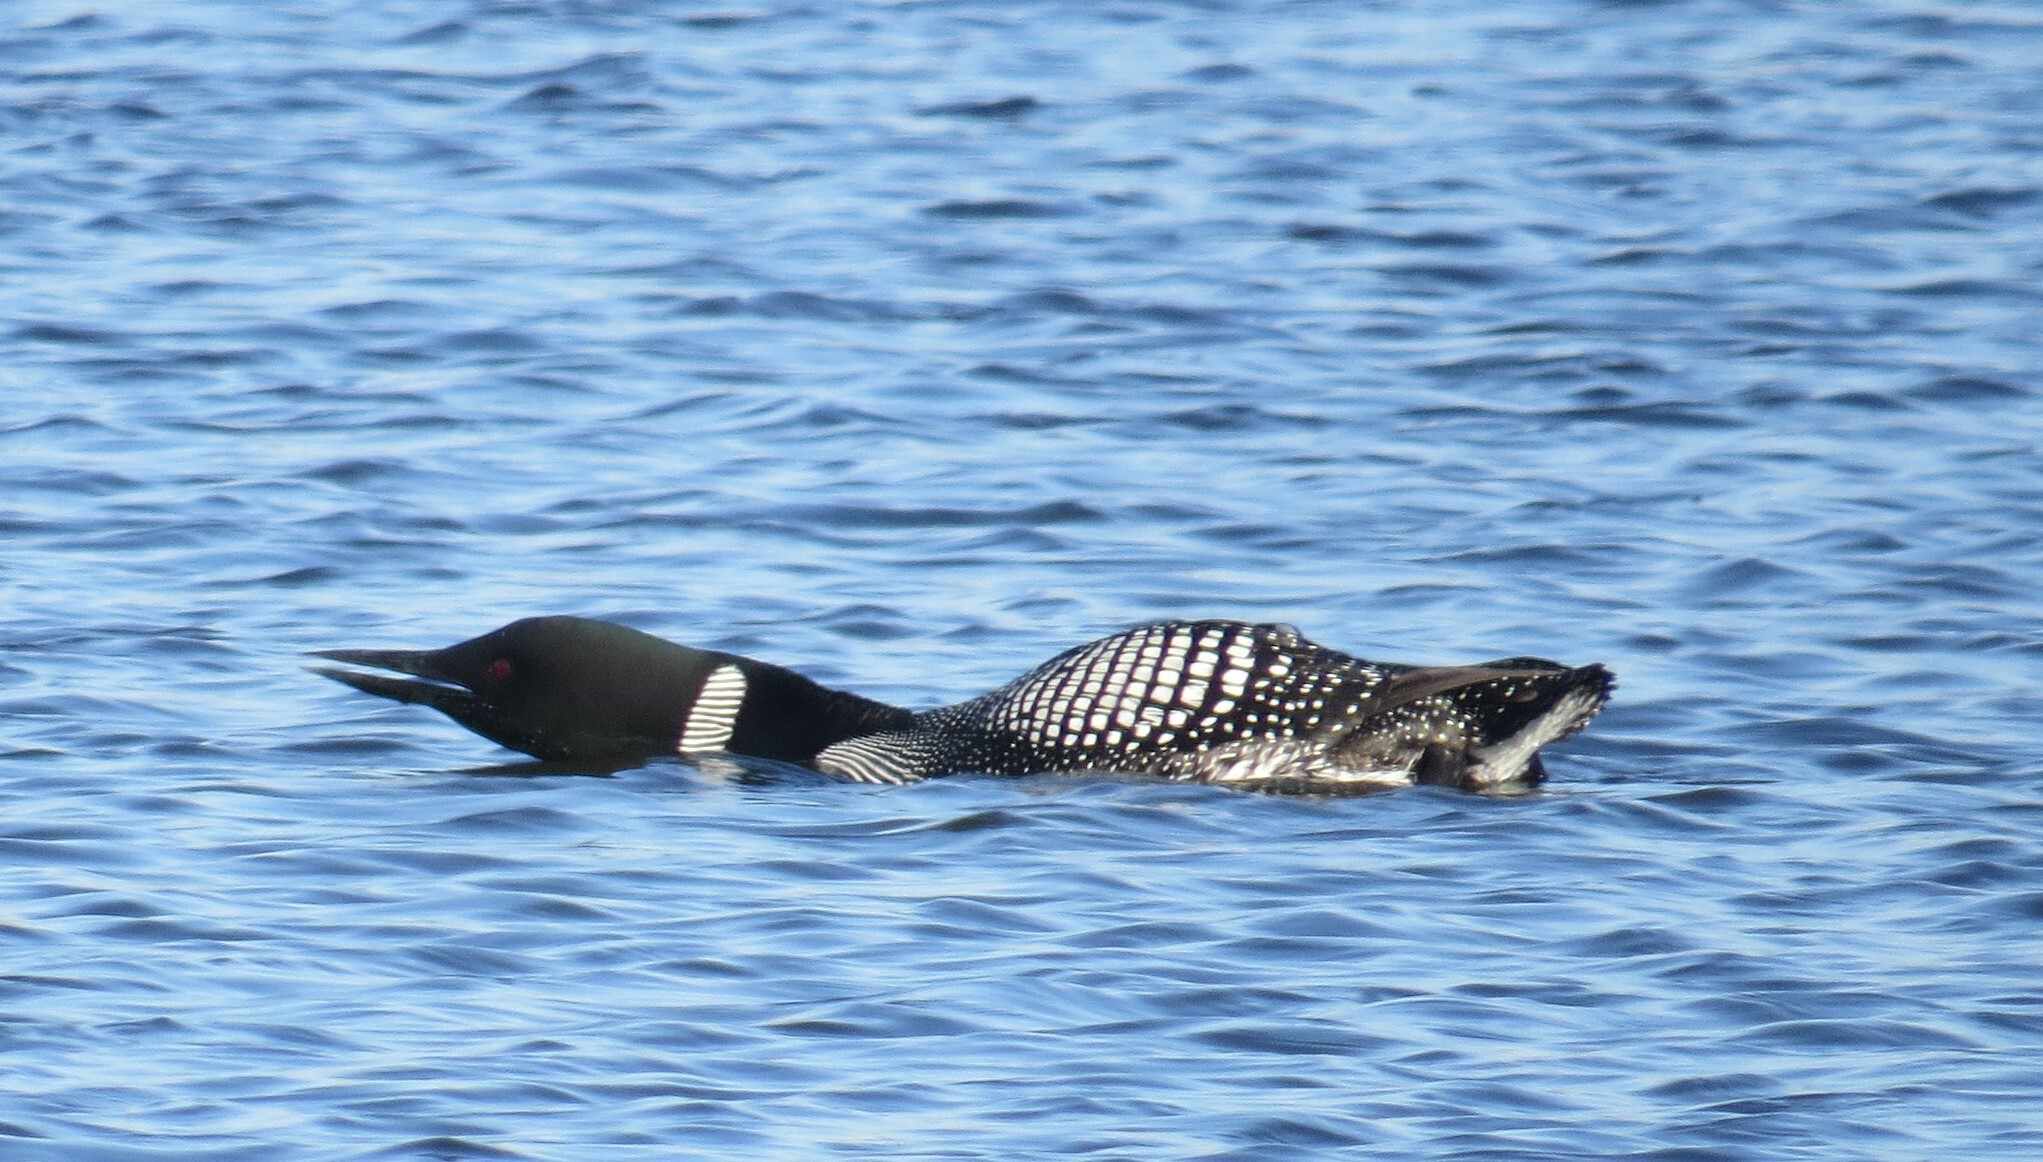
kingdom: Animalia
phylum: Chordata
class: Aves
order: Gaviiformes
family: Gaviidae
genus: Gavia
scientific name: Gavia immer
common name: Common loon
